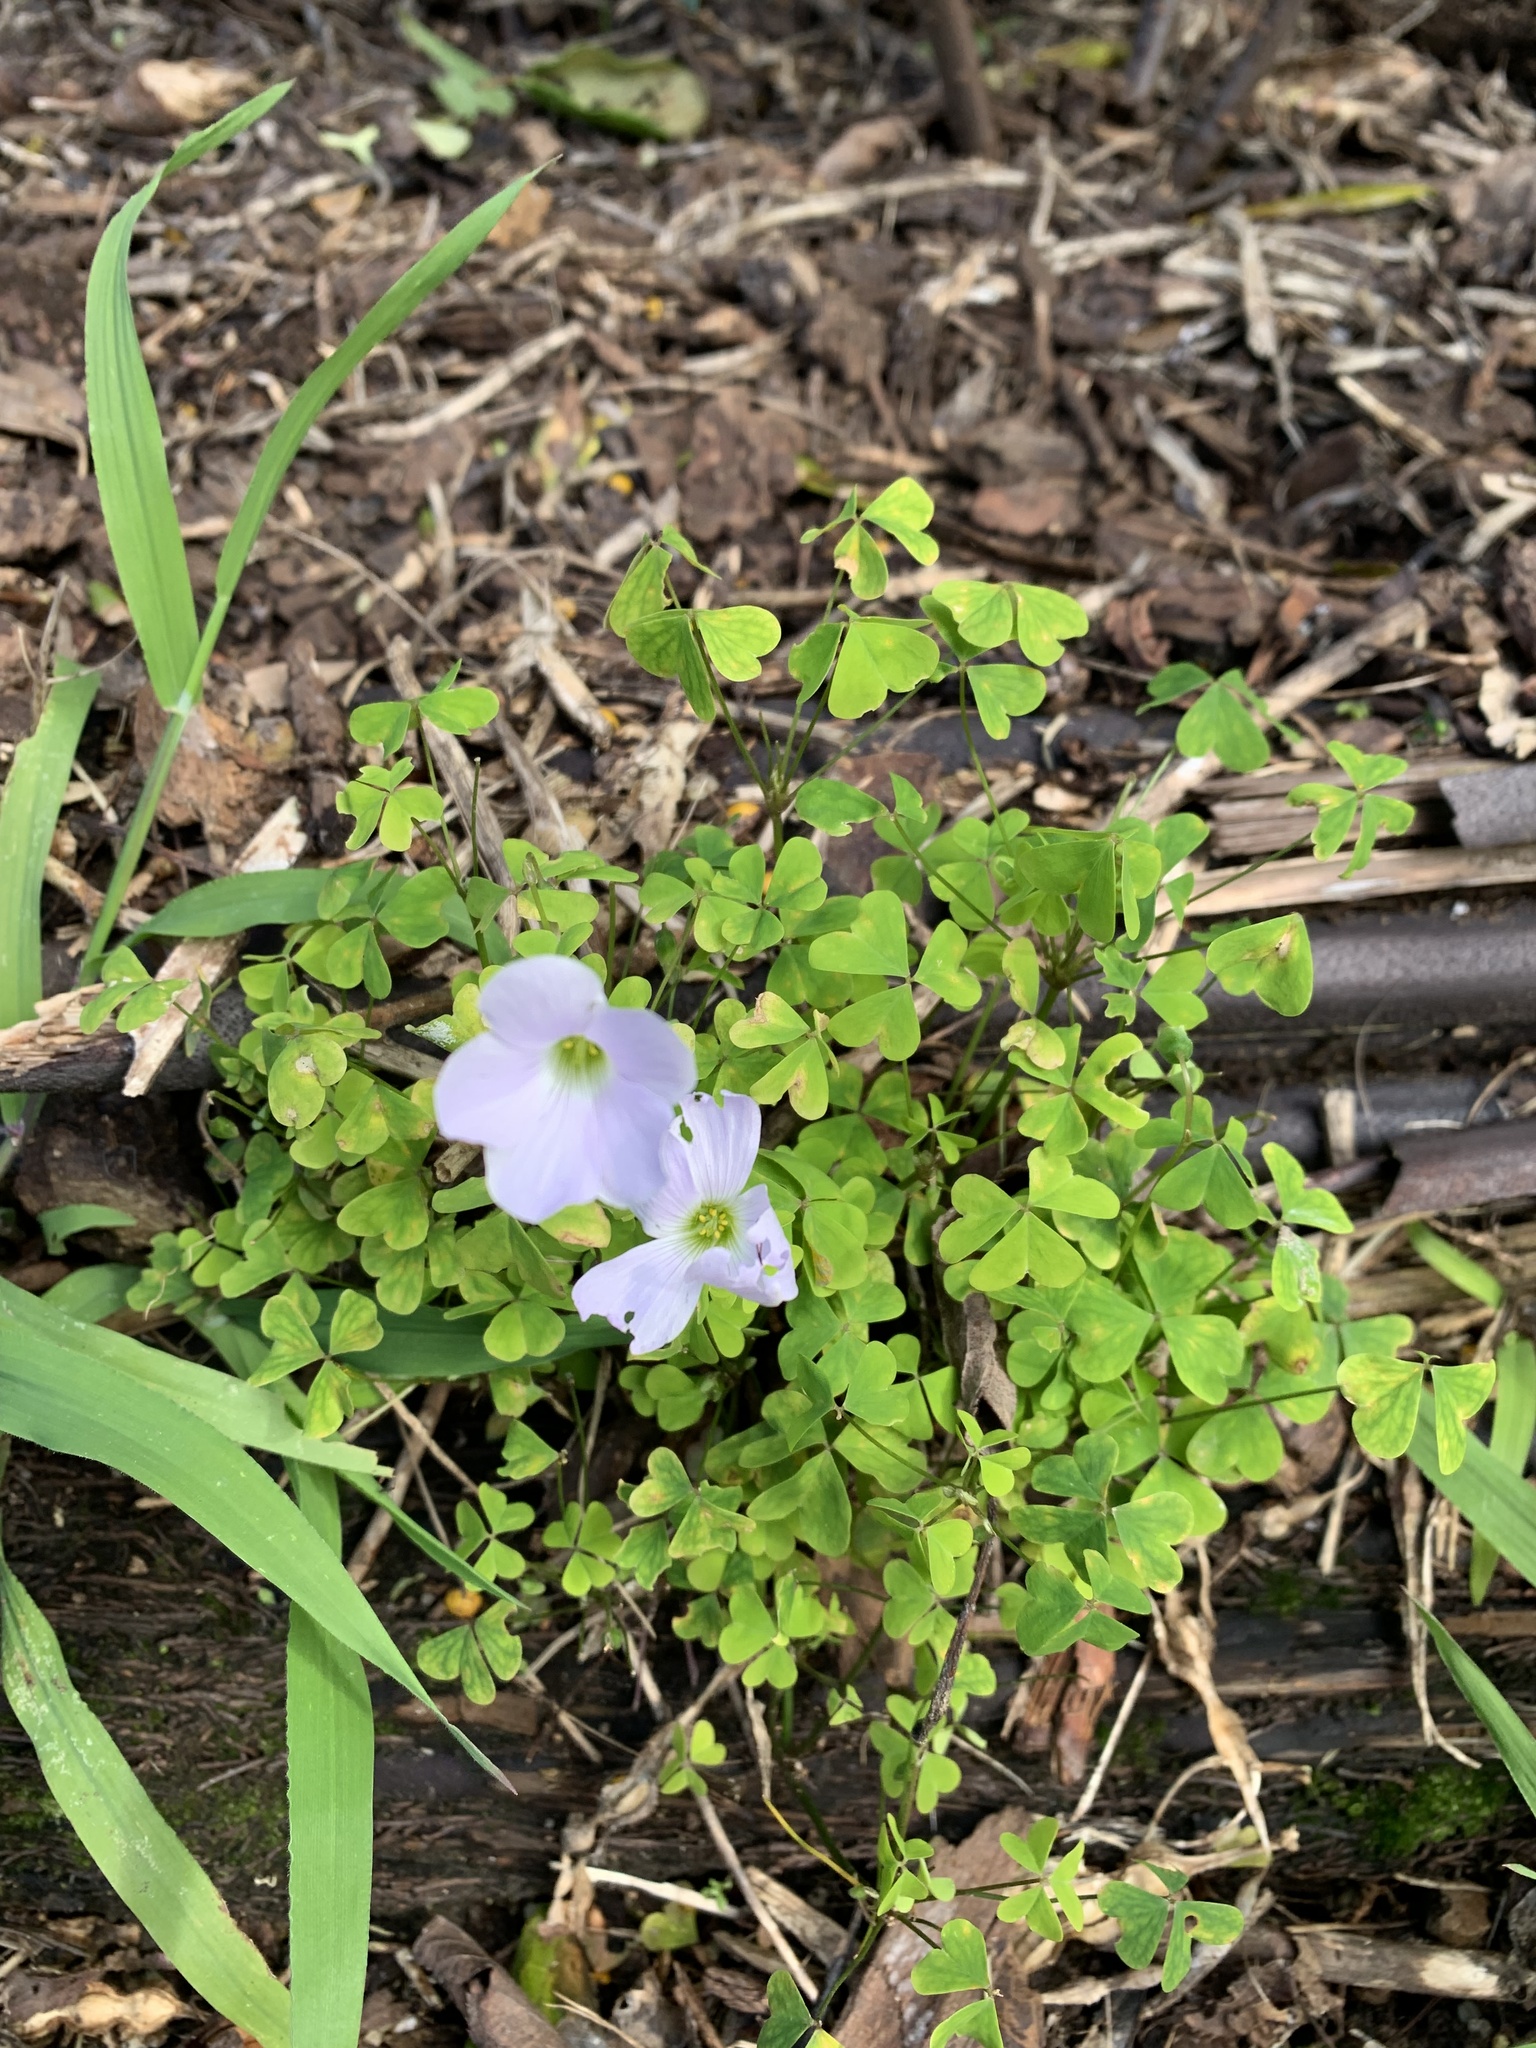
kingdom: Plantae
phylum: Tracheophyta
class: Magnoliopsida
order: Oxalidales
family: Oxalidaceae
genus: Oxalis
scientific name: Oxalis incarnata
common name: Pale pink-sorrel
